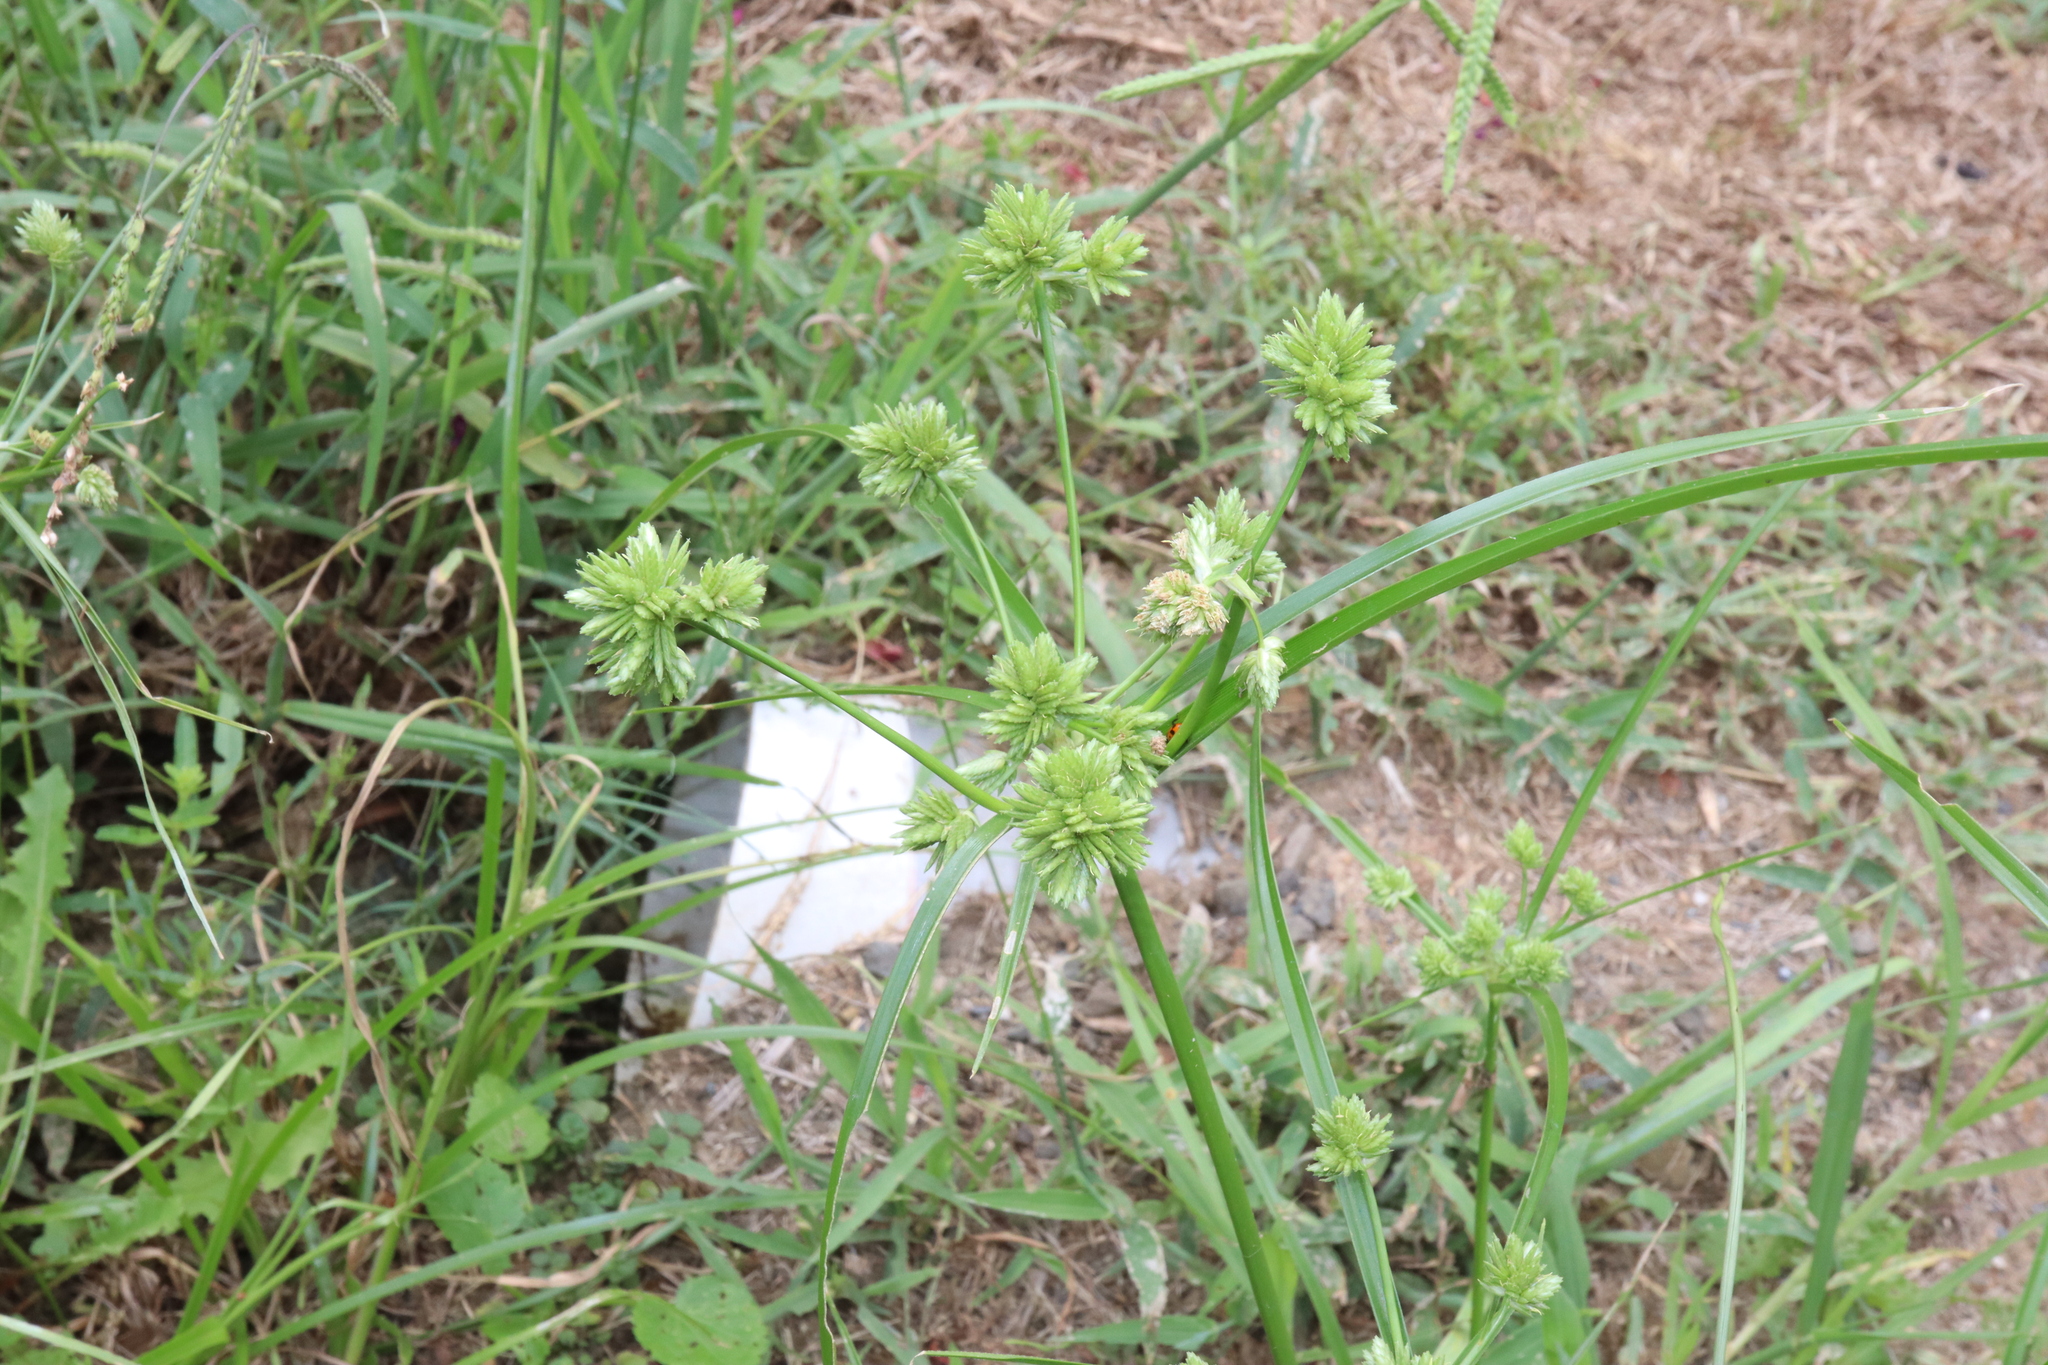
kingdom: Plantae
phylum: Tracheophyta
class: Liliopsida
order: Poales
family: Cyperaceae
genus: Cyperus
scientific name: Cyperus eragrostis
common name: Tall flatsedge
